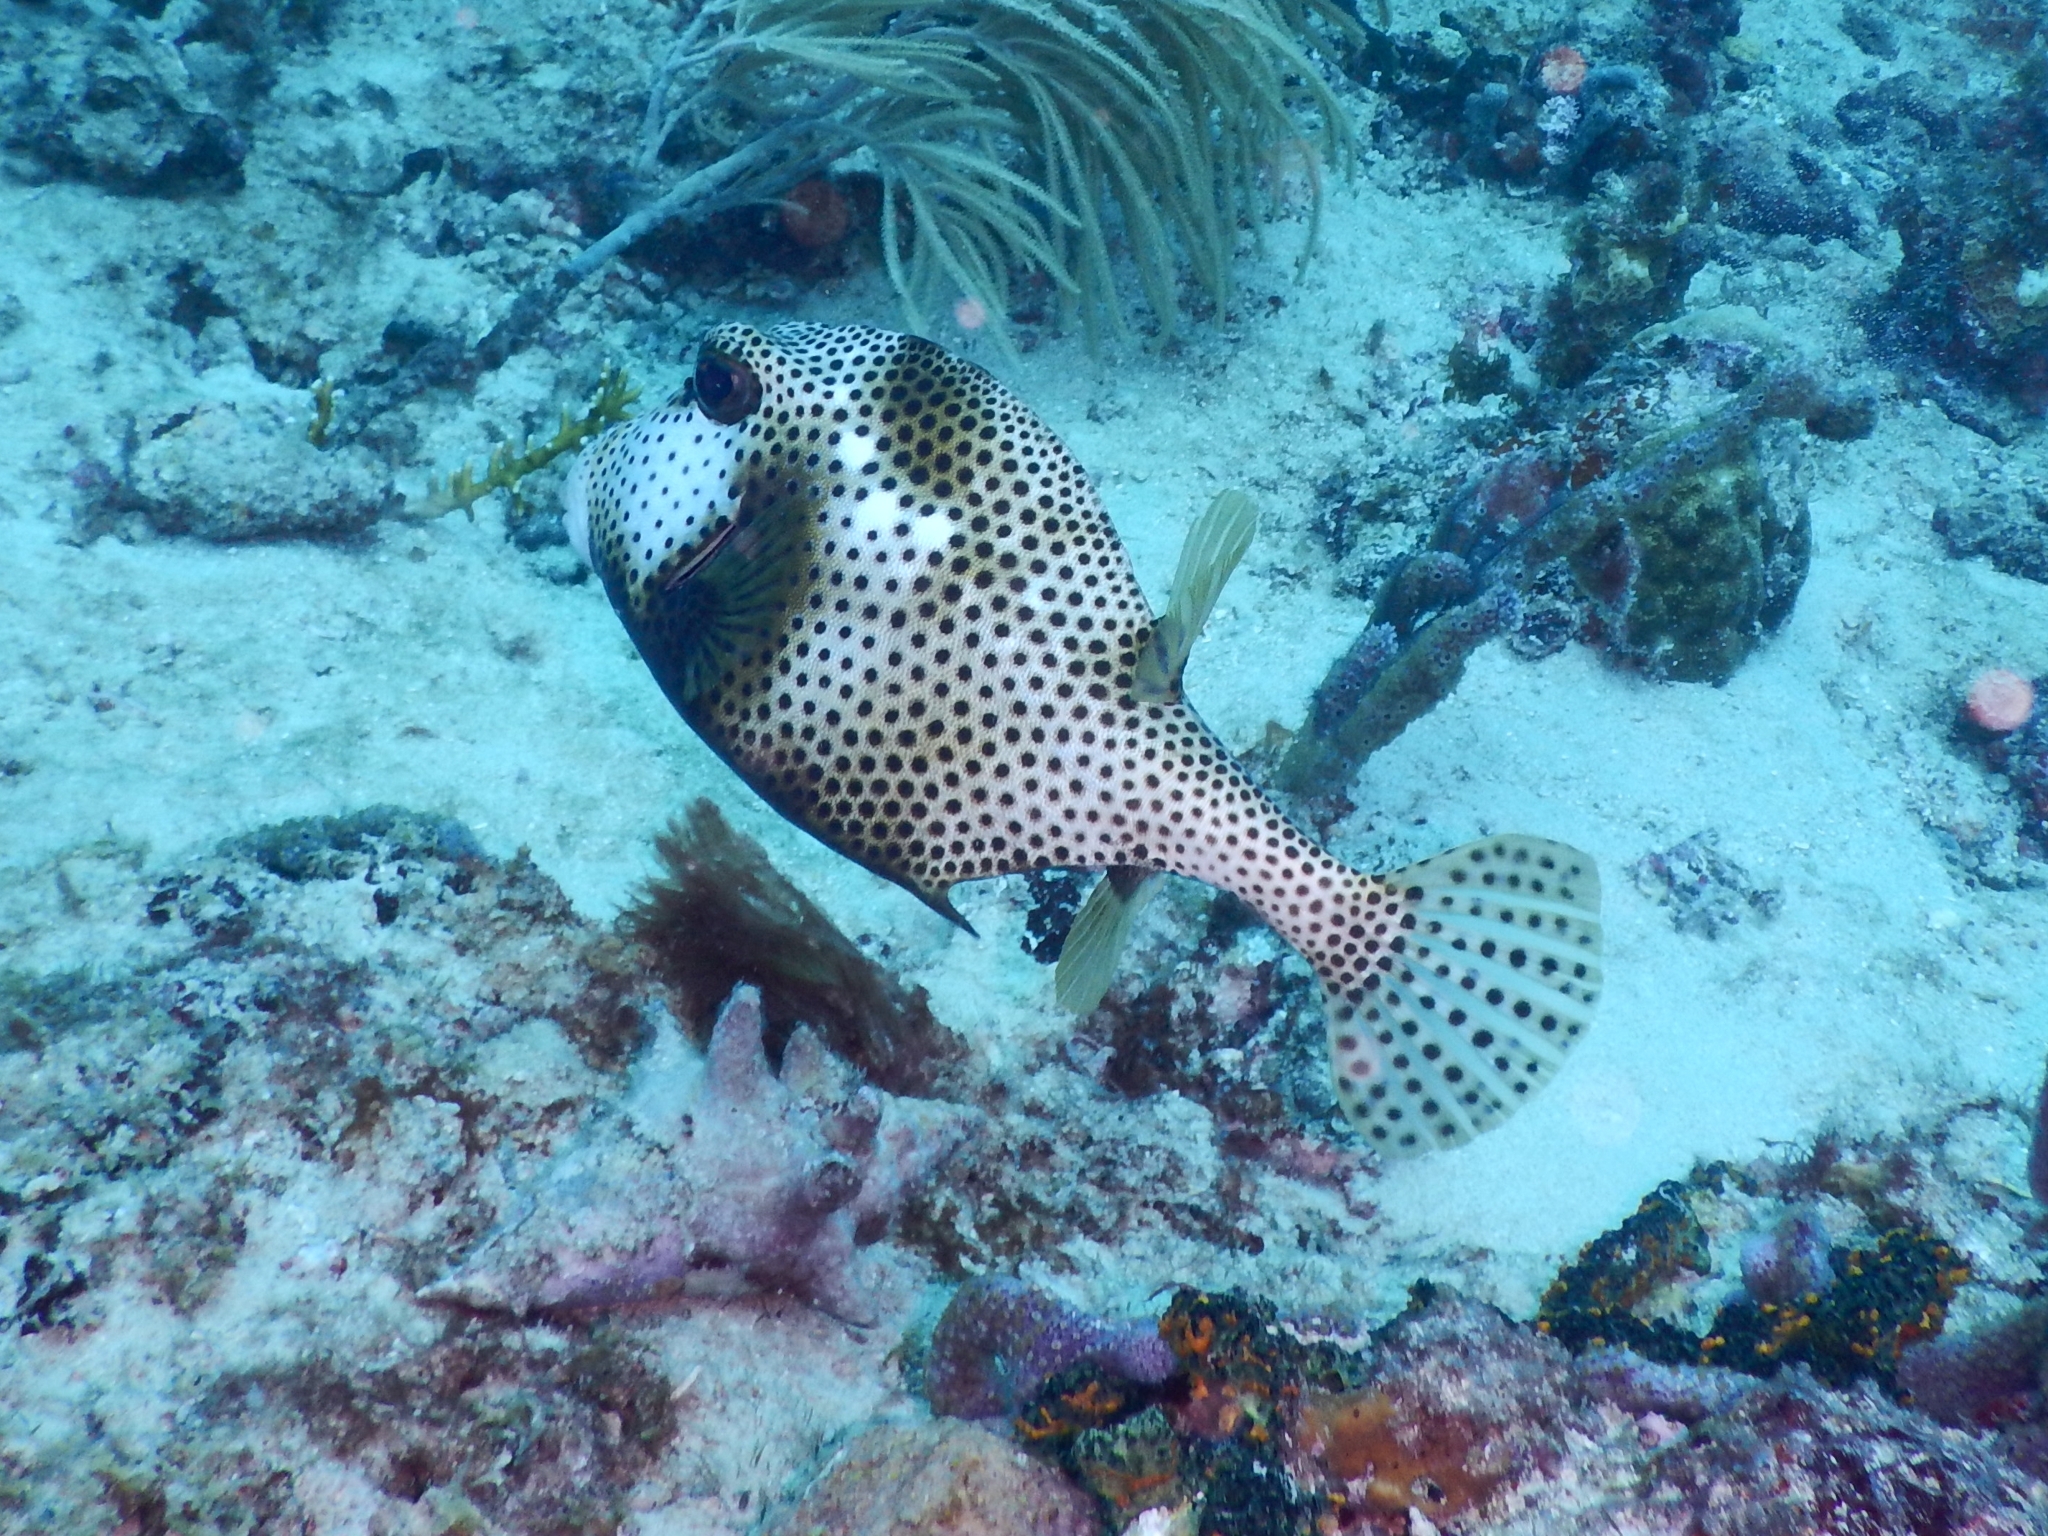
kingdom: Animalia
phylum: Chordata
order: Tetraodontiformes
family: Ostraciidae
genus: Lactophrys
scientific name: Lactophrys bicaudalis
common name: Spotted trunkfish
